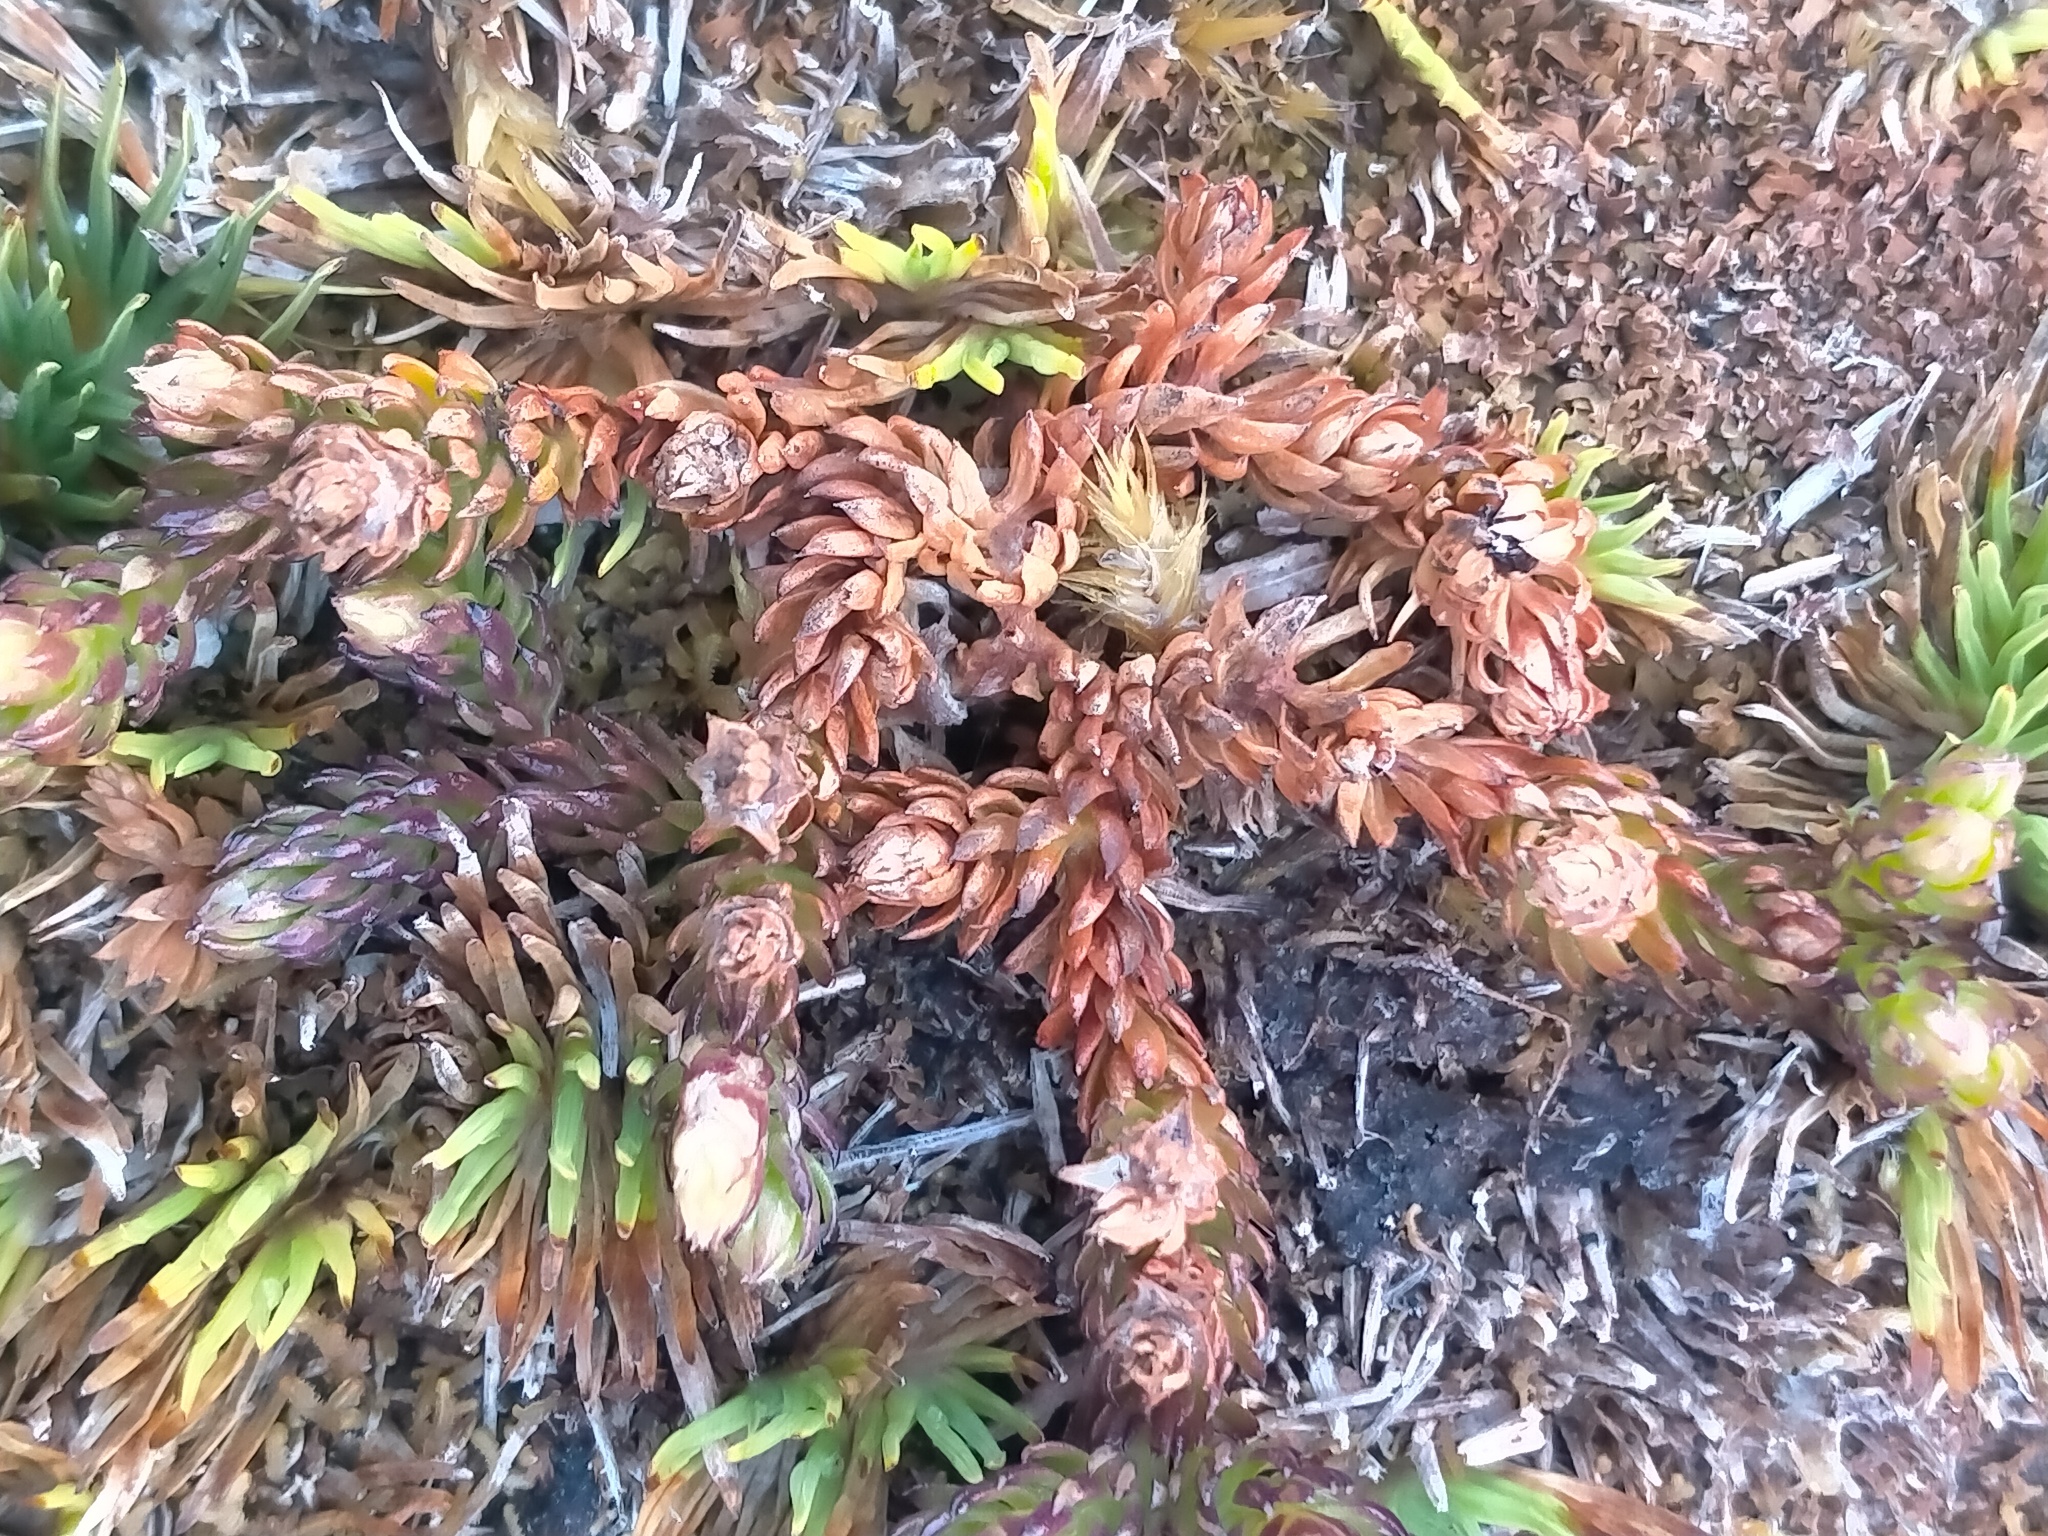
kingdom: Plantae
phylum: Tracheophyta
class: Lycopodiopsida
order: Lycopodiales
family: Lycopodiaceae
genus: Lateristachys
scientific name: Lateristachys diffusa
